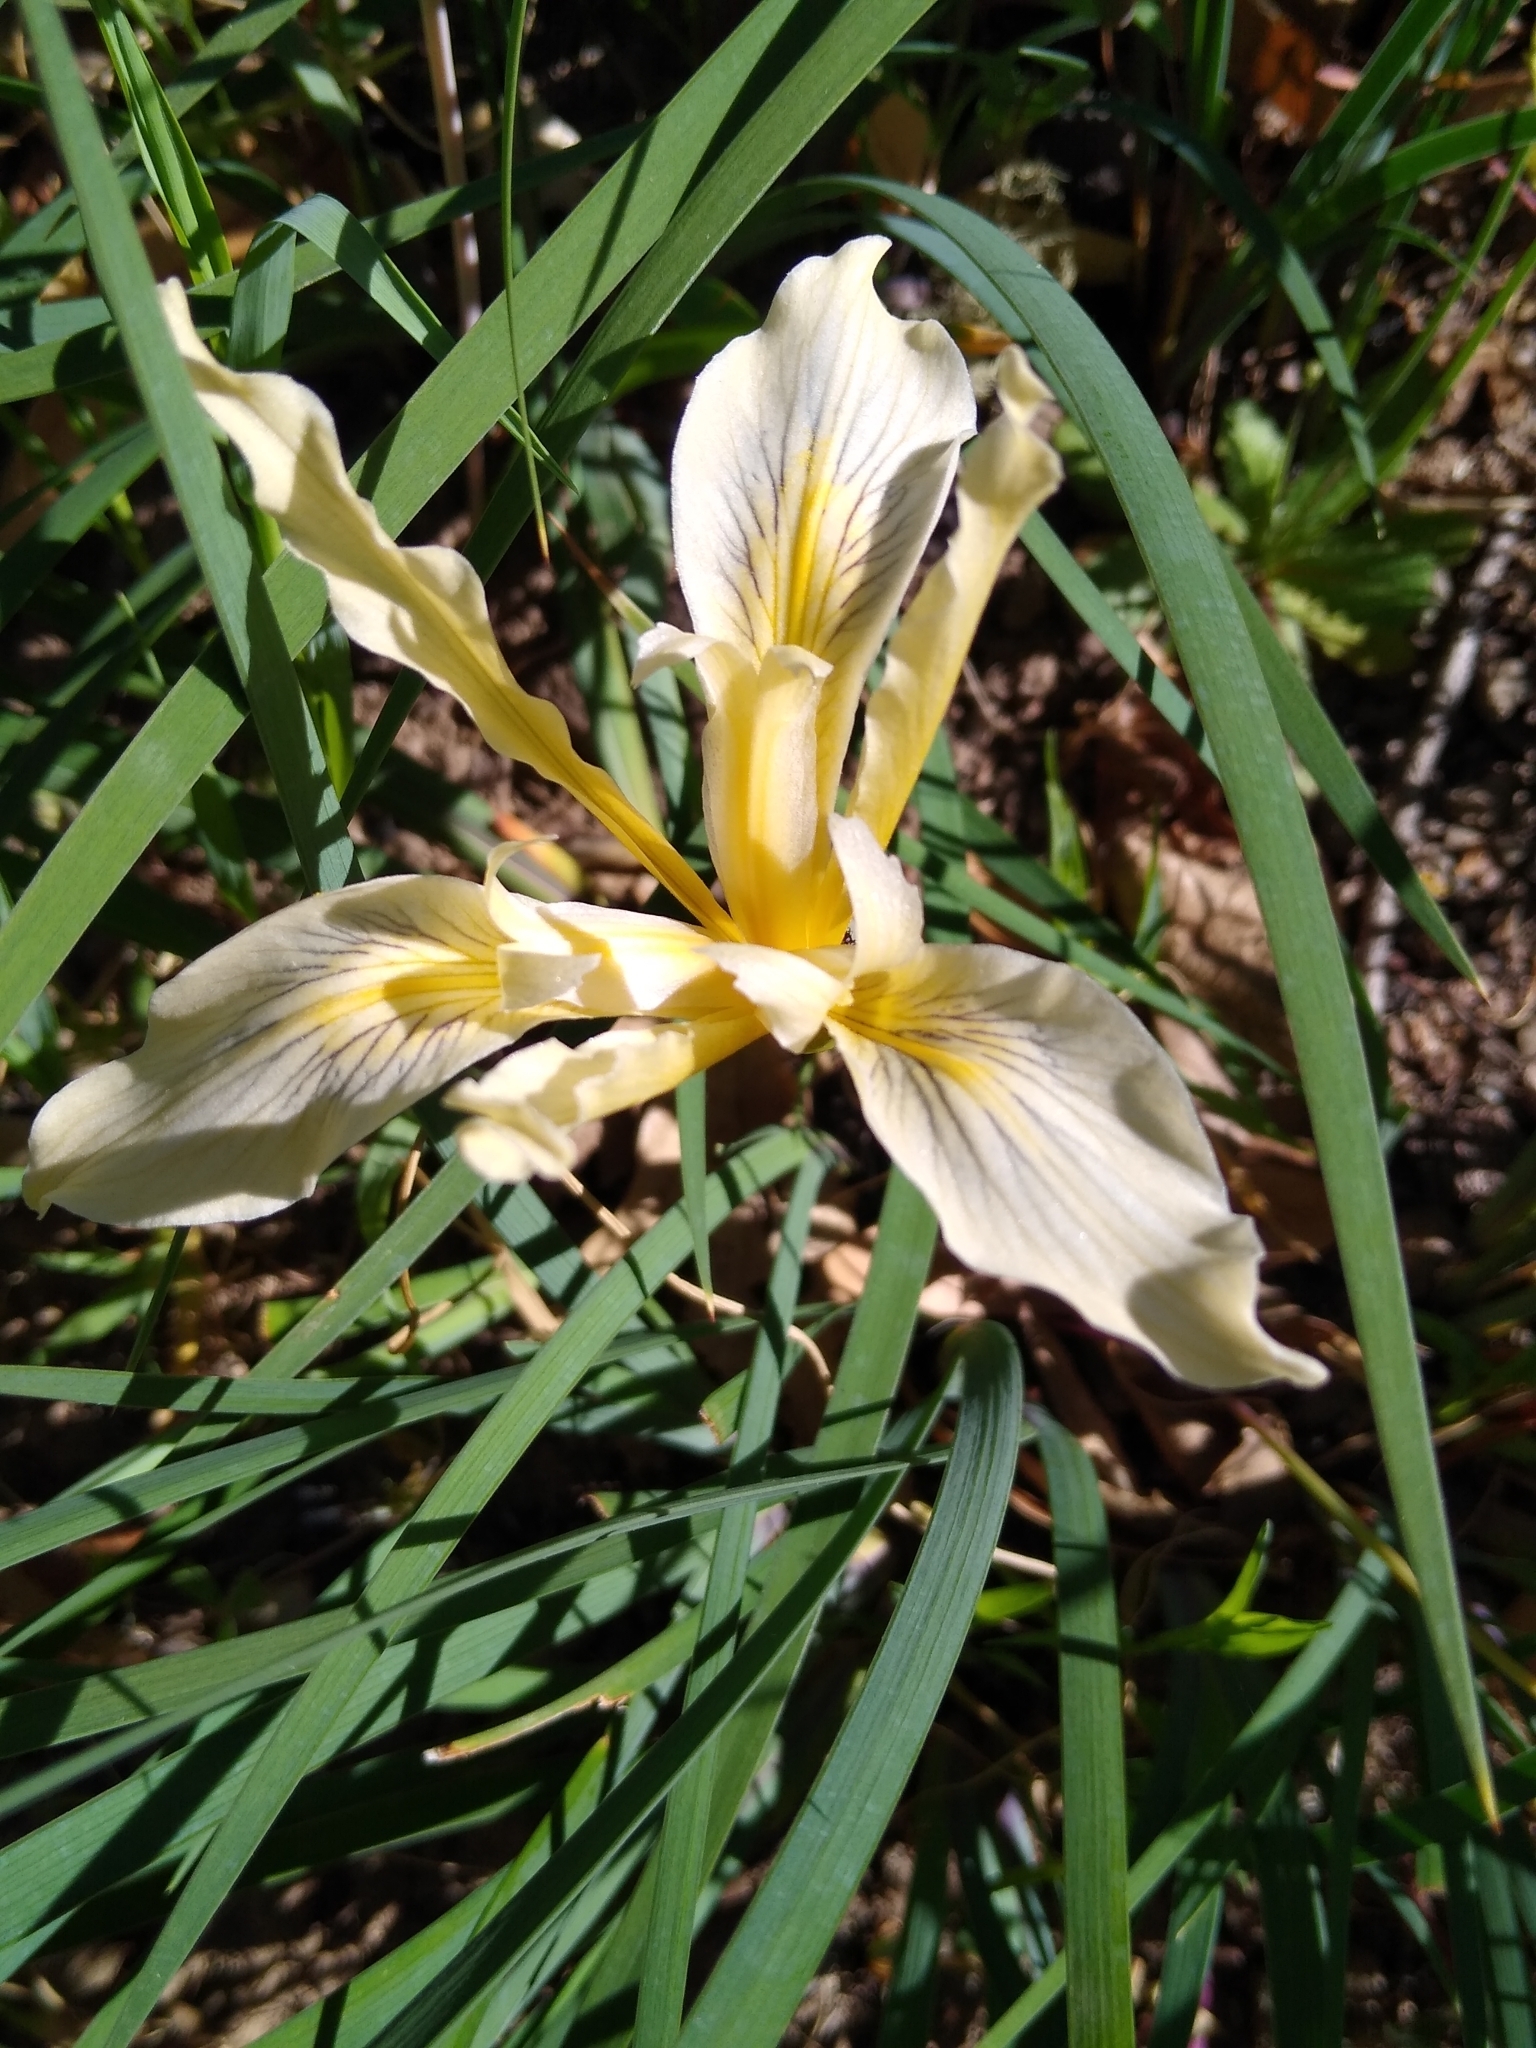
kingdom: Plantae
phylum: Tracheophyta
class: Liliopsida
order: Asparagales
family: Iridaceae
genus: Iris
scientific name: Iris fernaldii
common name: Fernald's iris
